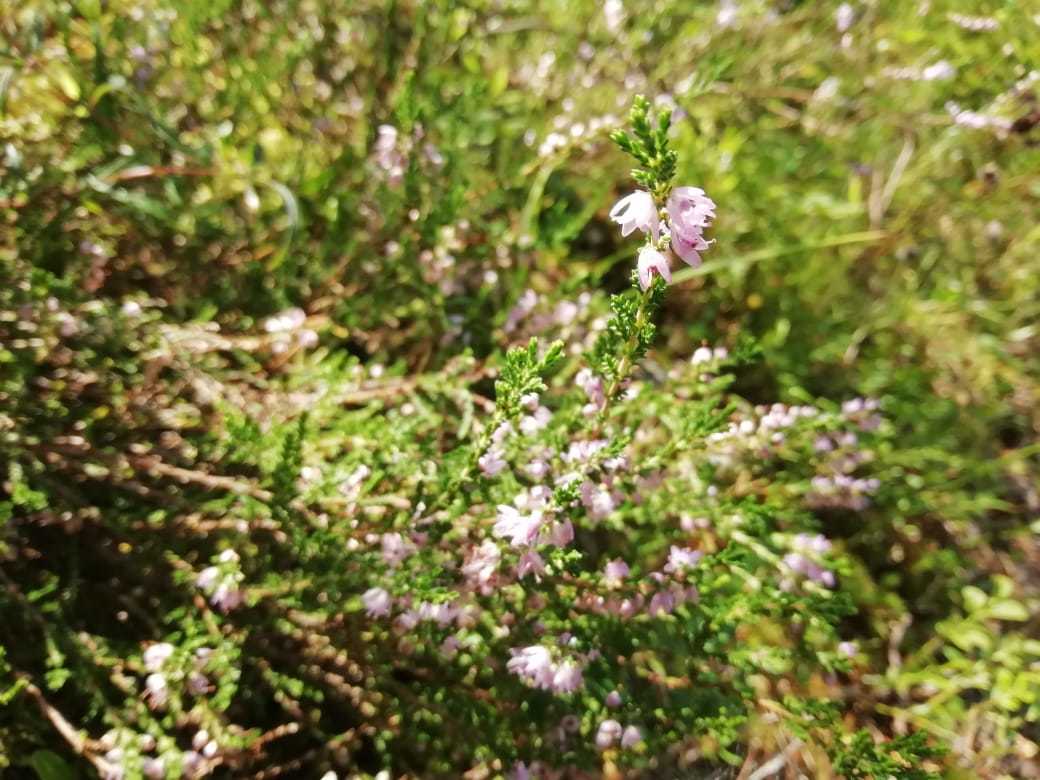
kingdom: Plantae
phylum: Tracheophyta
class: Magnoliopsida
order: Ericales
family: Ericaceae
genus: Calluna
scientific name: Calluna vulgaris
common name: Heather
